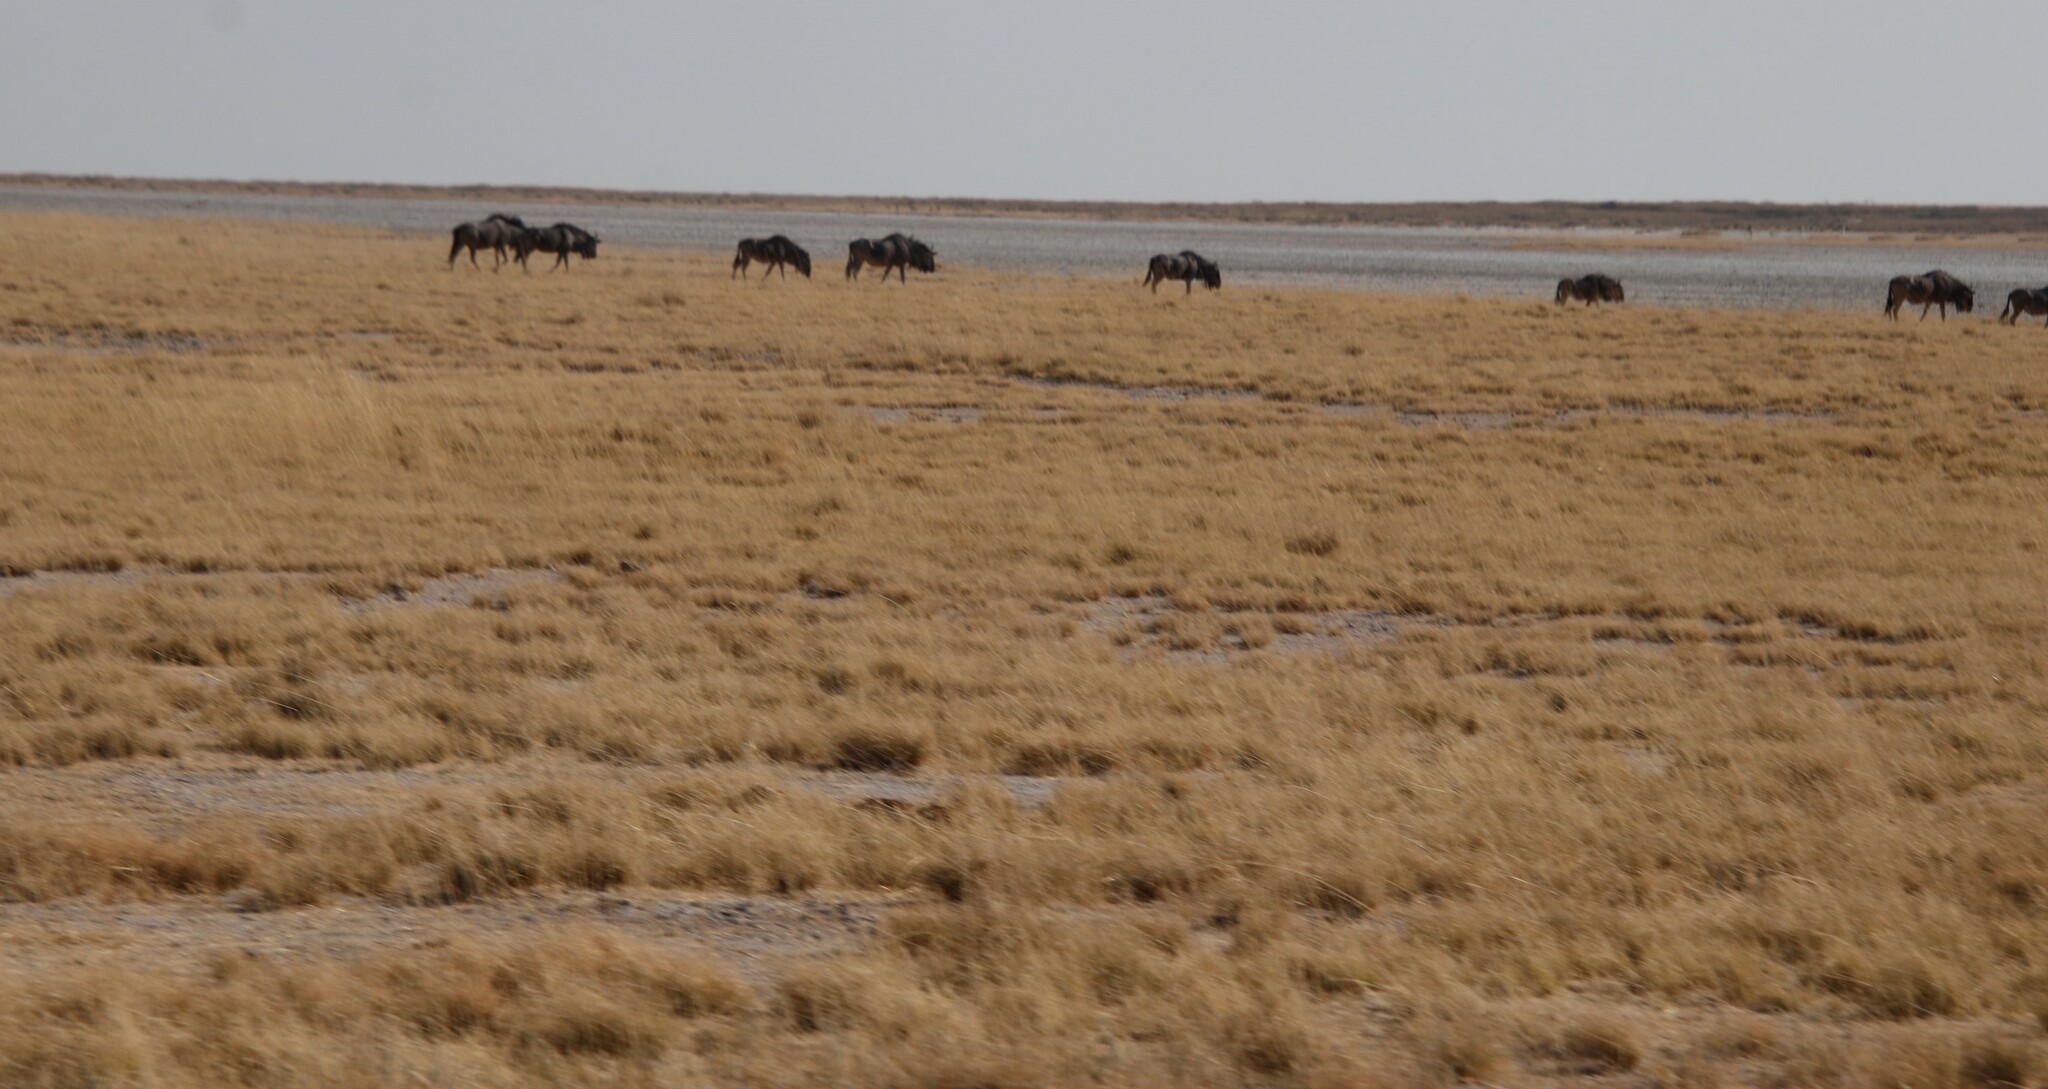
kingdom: Animalia
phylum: Chordata
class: Mammalia
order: Artiodactyla
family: Bovidae
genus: Connochaetes
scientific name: Connochaetes taurinus
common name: Blue wildebeest
